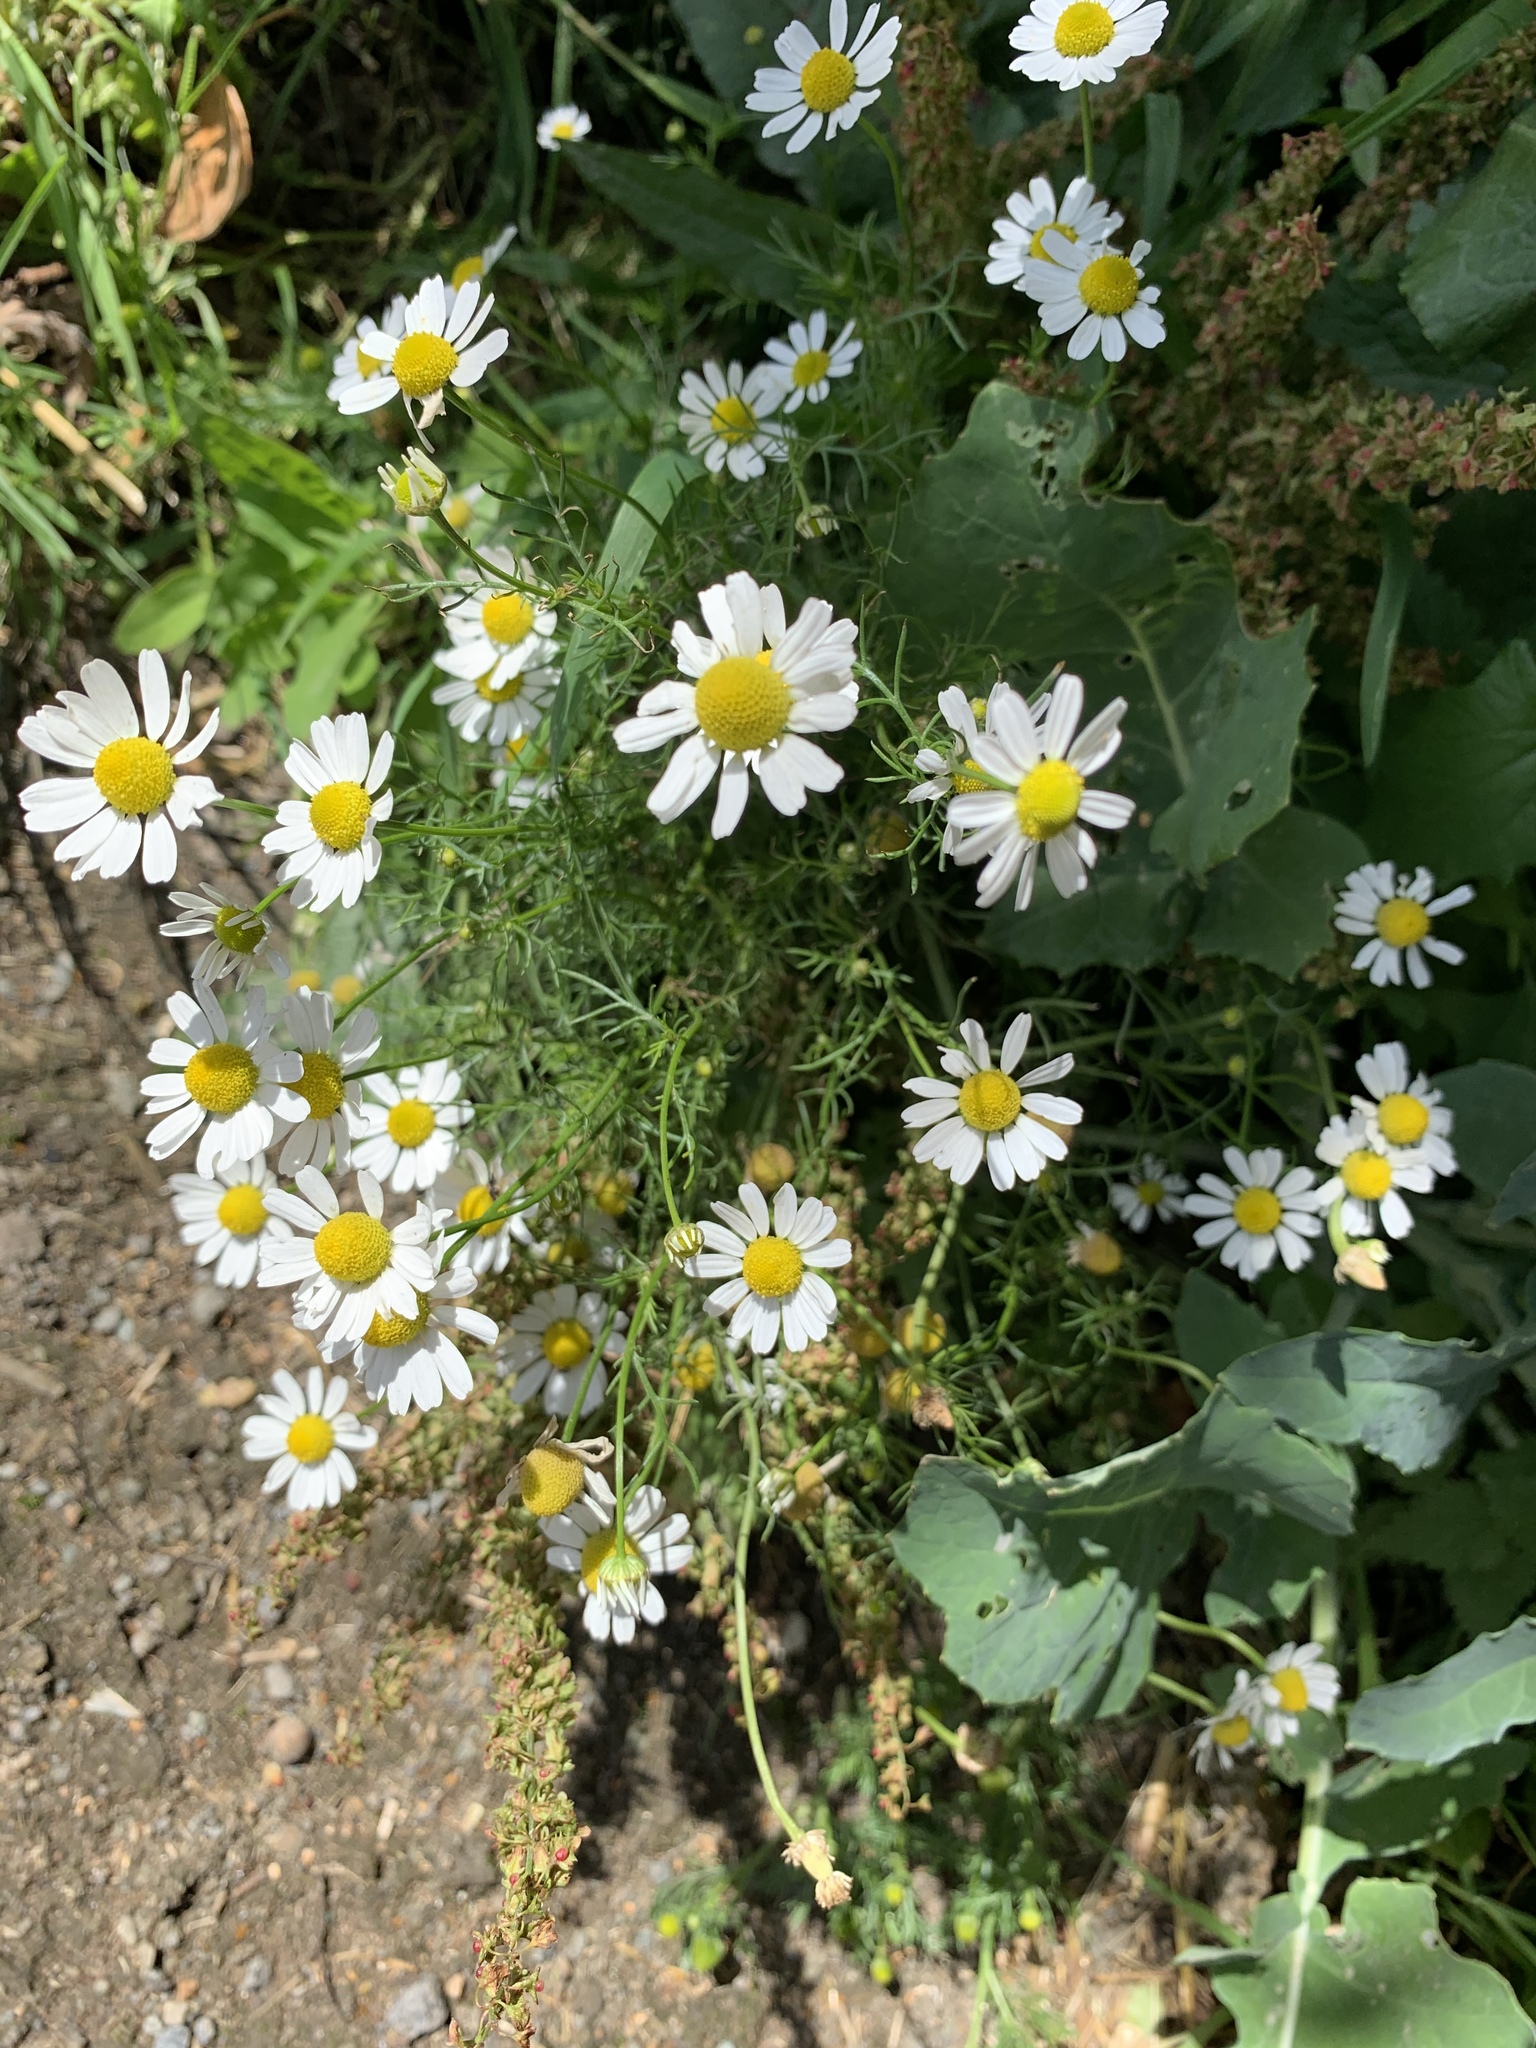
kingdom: Plantae
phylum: Tracheophyta
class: Magnoliopsida
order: Asterales
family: Asteraceae
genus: Tripleurospermum
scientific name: Tripleurospermum inodorum
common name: Scentless mayweed
